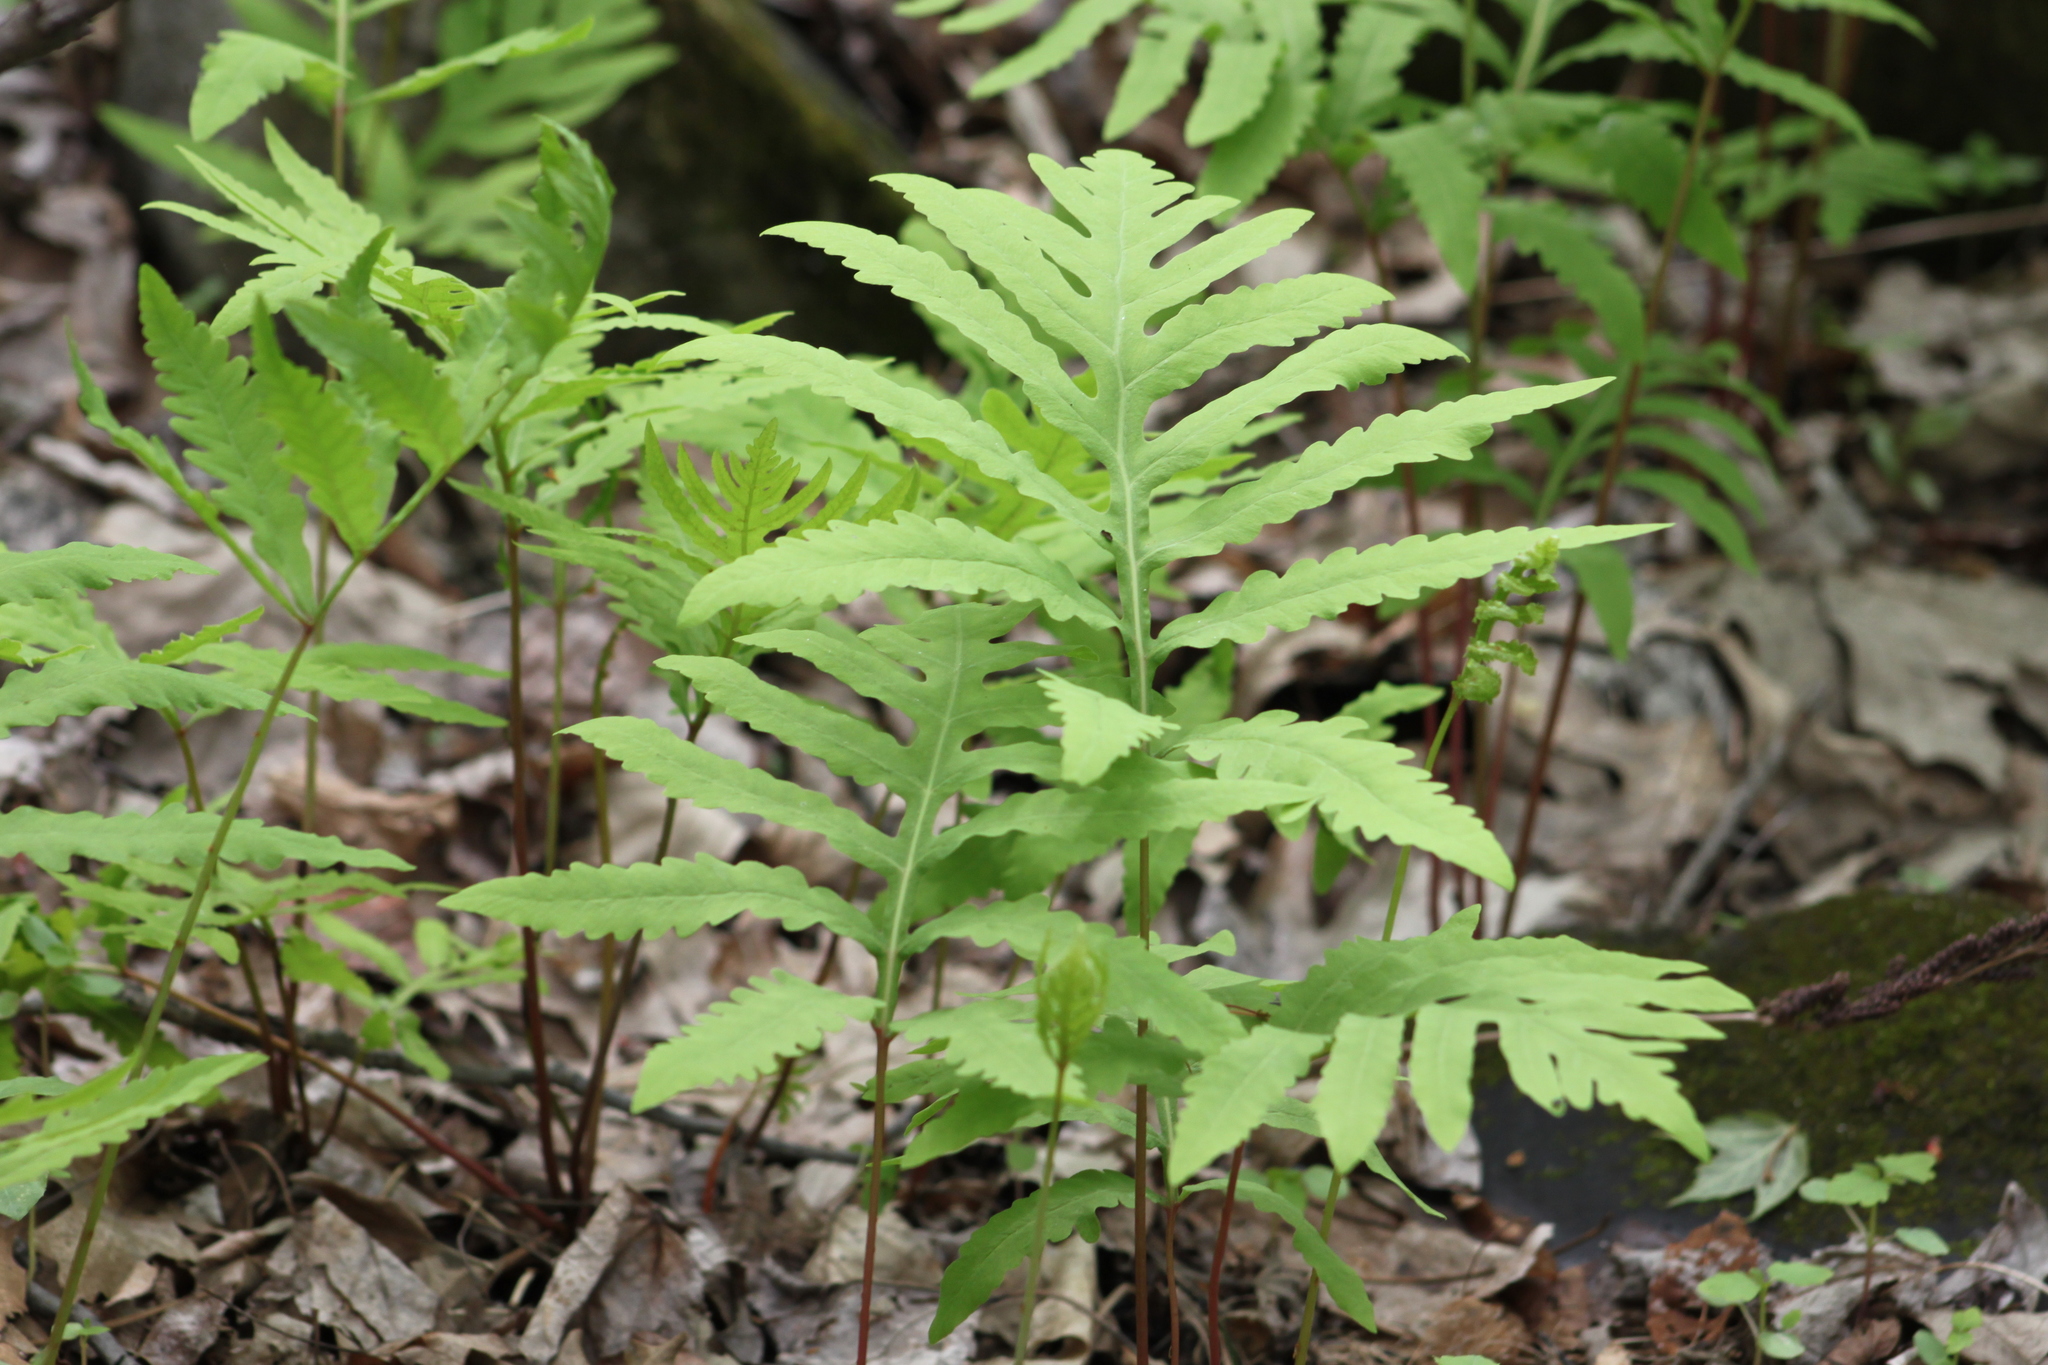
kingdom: Plantae
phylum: Tracheophyta
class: Polypodiopsida
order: Polypodiales
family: Onocleaceae
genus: Onoclea
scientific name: Onoclea sensibilis
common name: Sensitive fern
